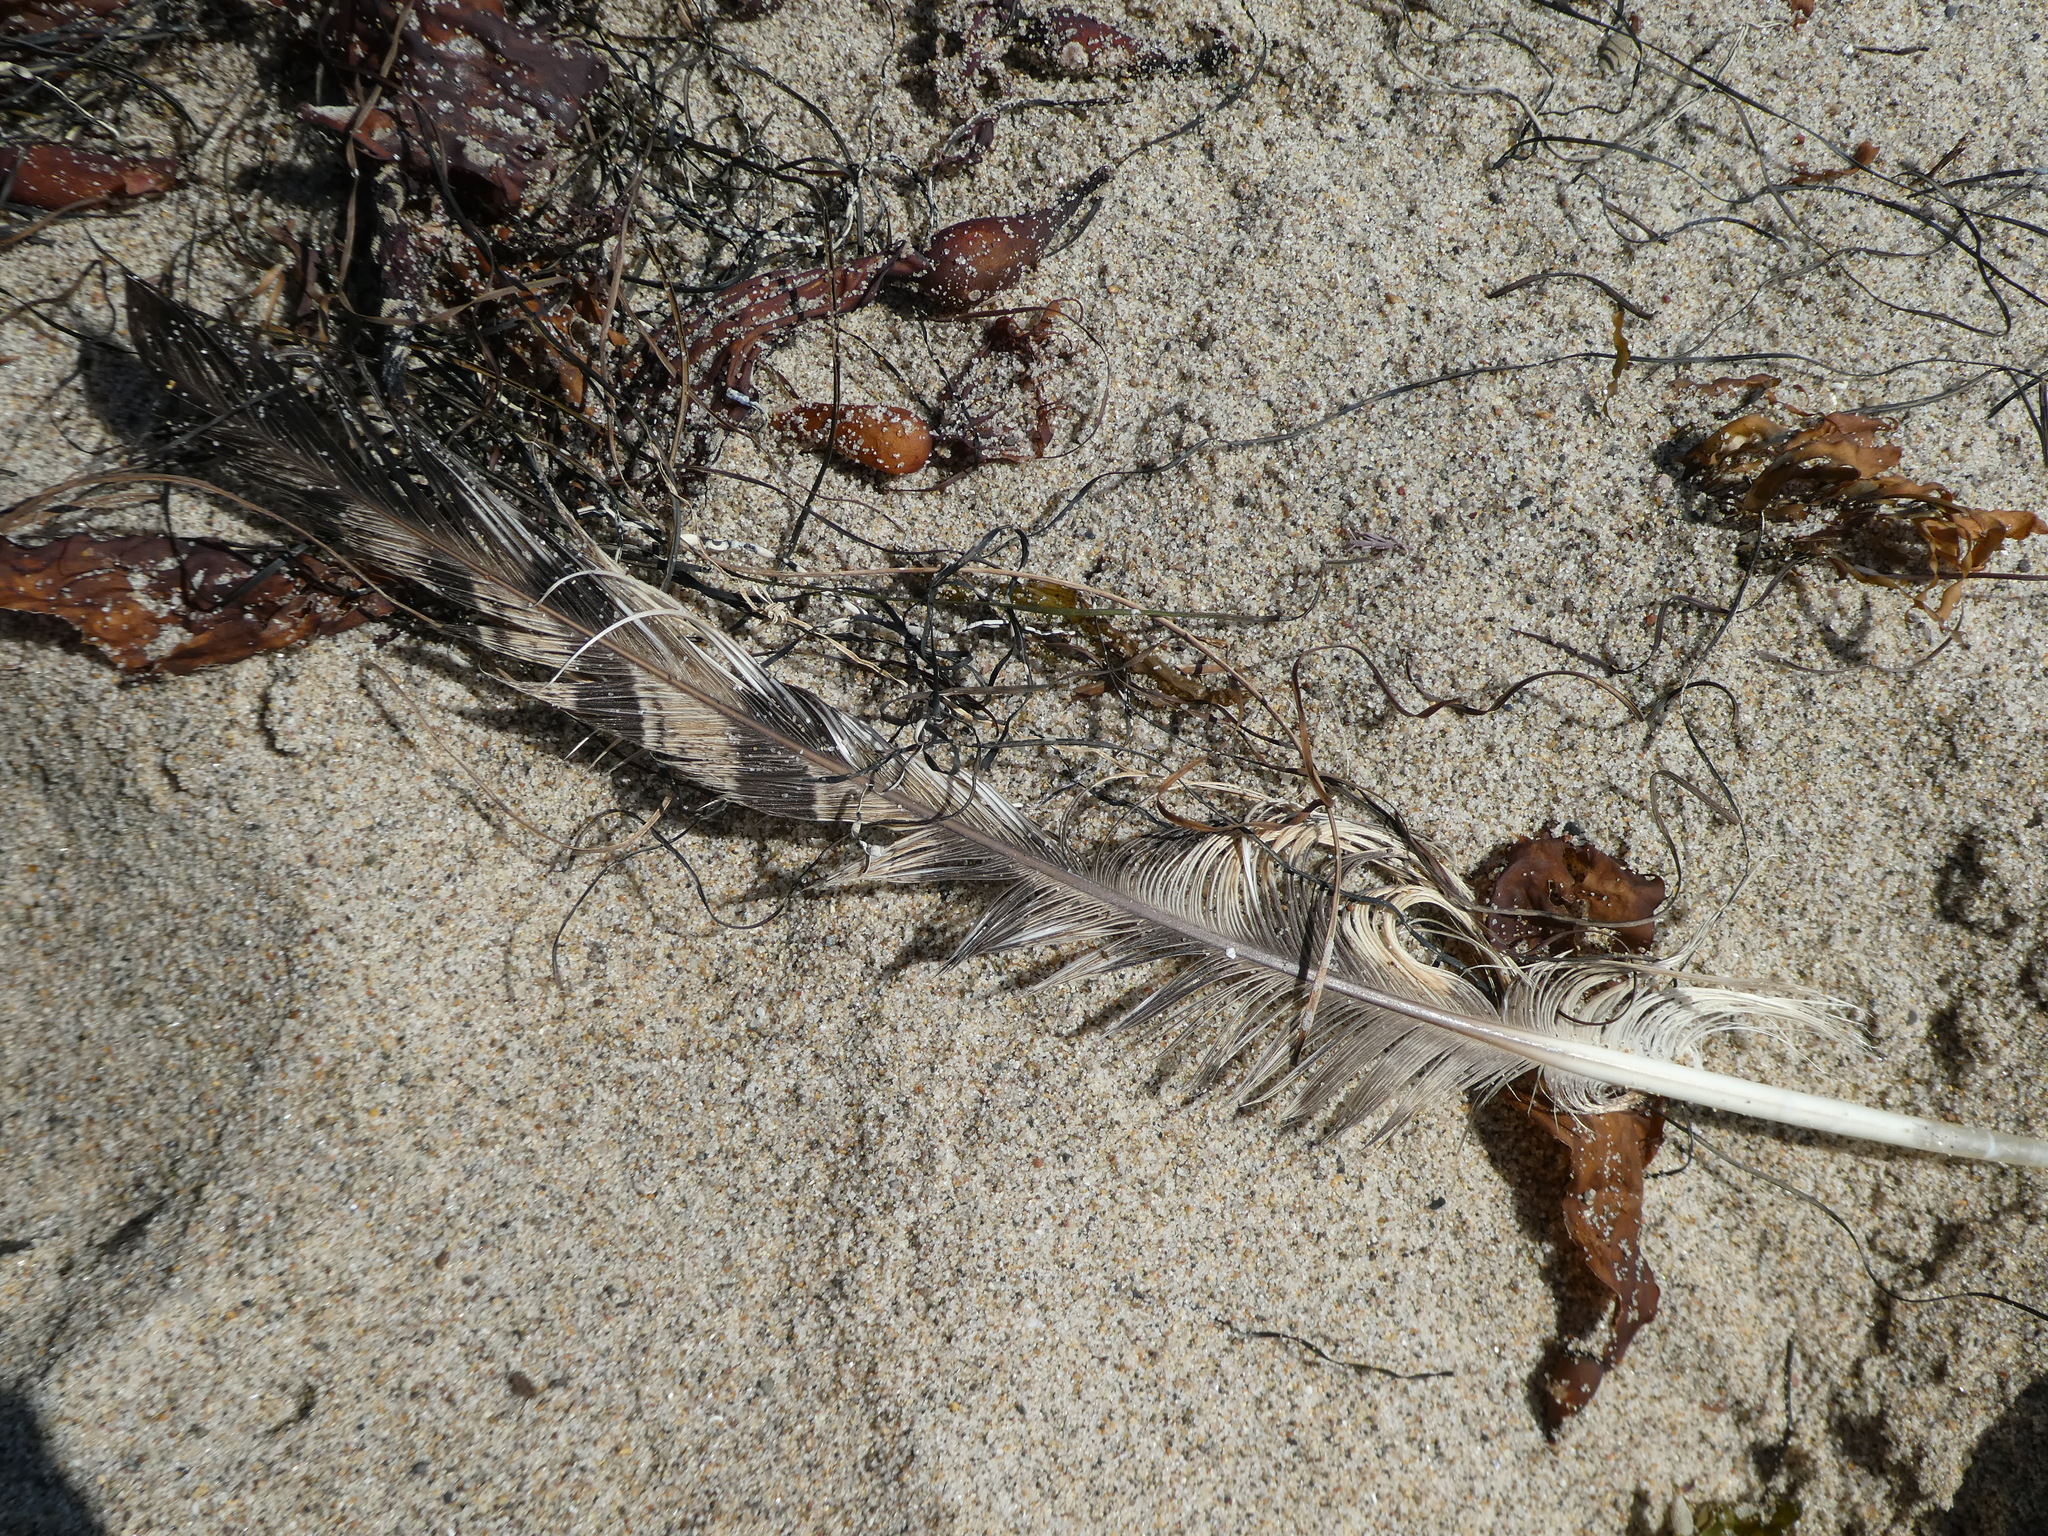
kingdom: Animalia
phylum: Chordata
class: Aves
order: Strigiformes
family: Strigidae
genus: Bubo
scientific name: Bubo virginianus
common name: Great horned owl
